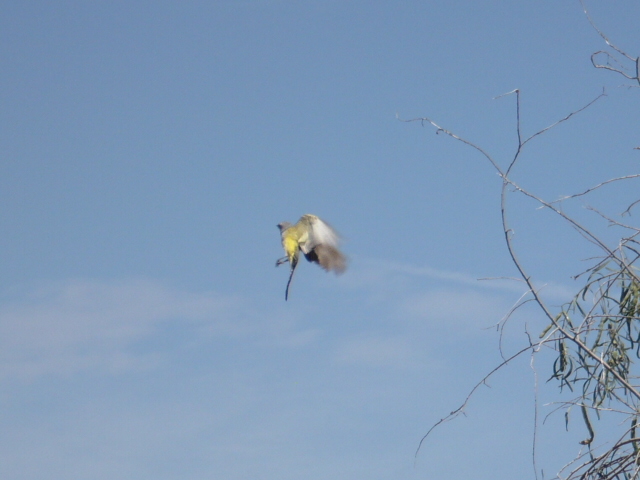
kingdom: Animalia
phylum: Chordata
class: Aves
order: Passeriformes
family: Tyrannidae
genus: Tyrannus
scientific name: Tyrannus verticalis
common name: Western kingbird
